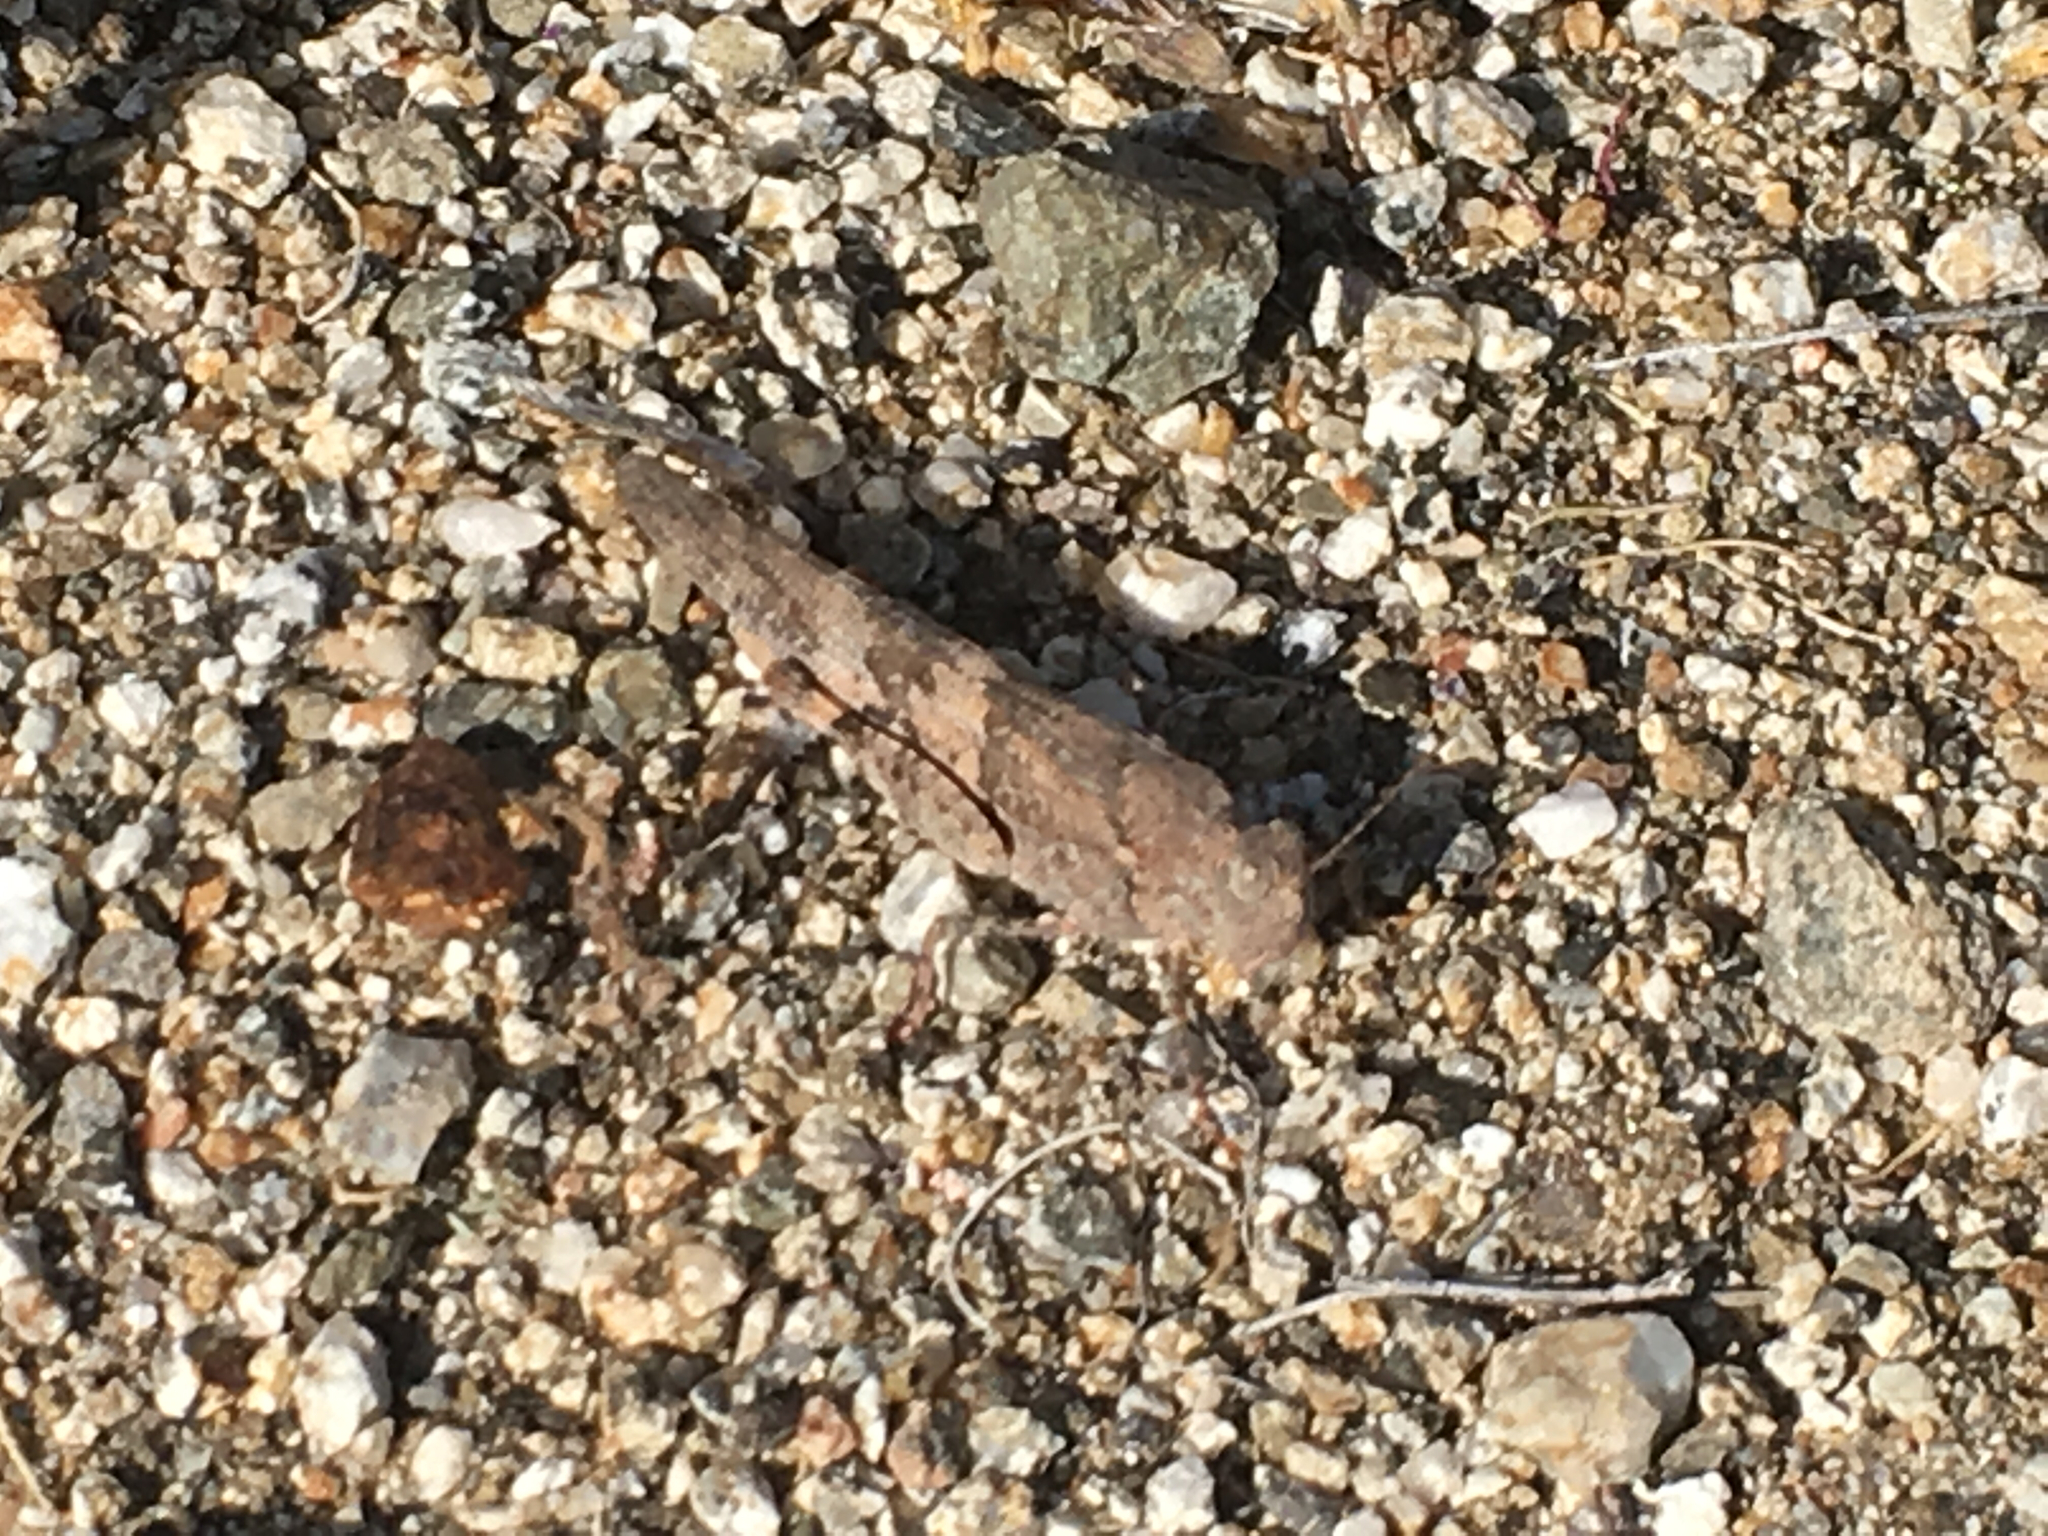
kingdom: Animalia
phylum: Arthropoda
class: Insecta
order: Orthoptera
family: Acrididae
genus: Trimerotropis
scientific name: Trimerotropis pallidipennis
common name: Pallid-winged grasshopper
